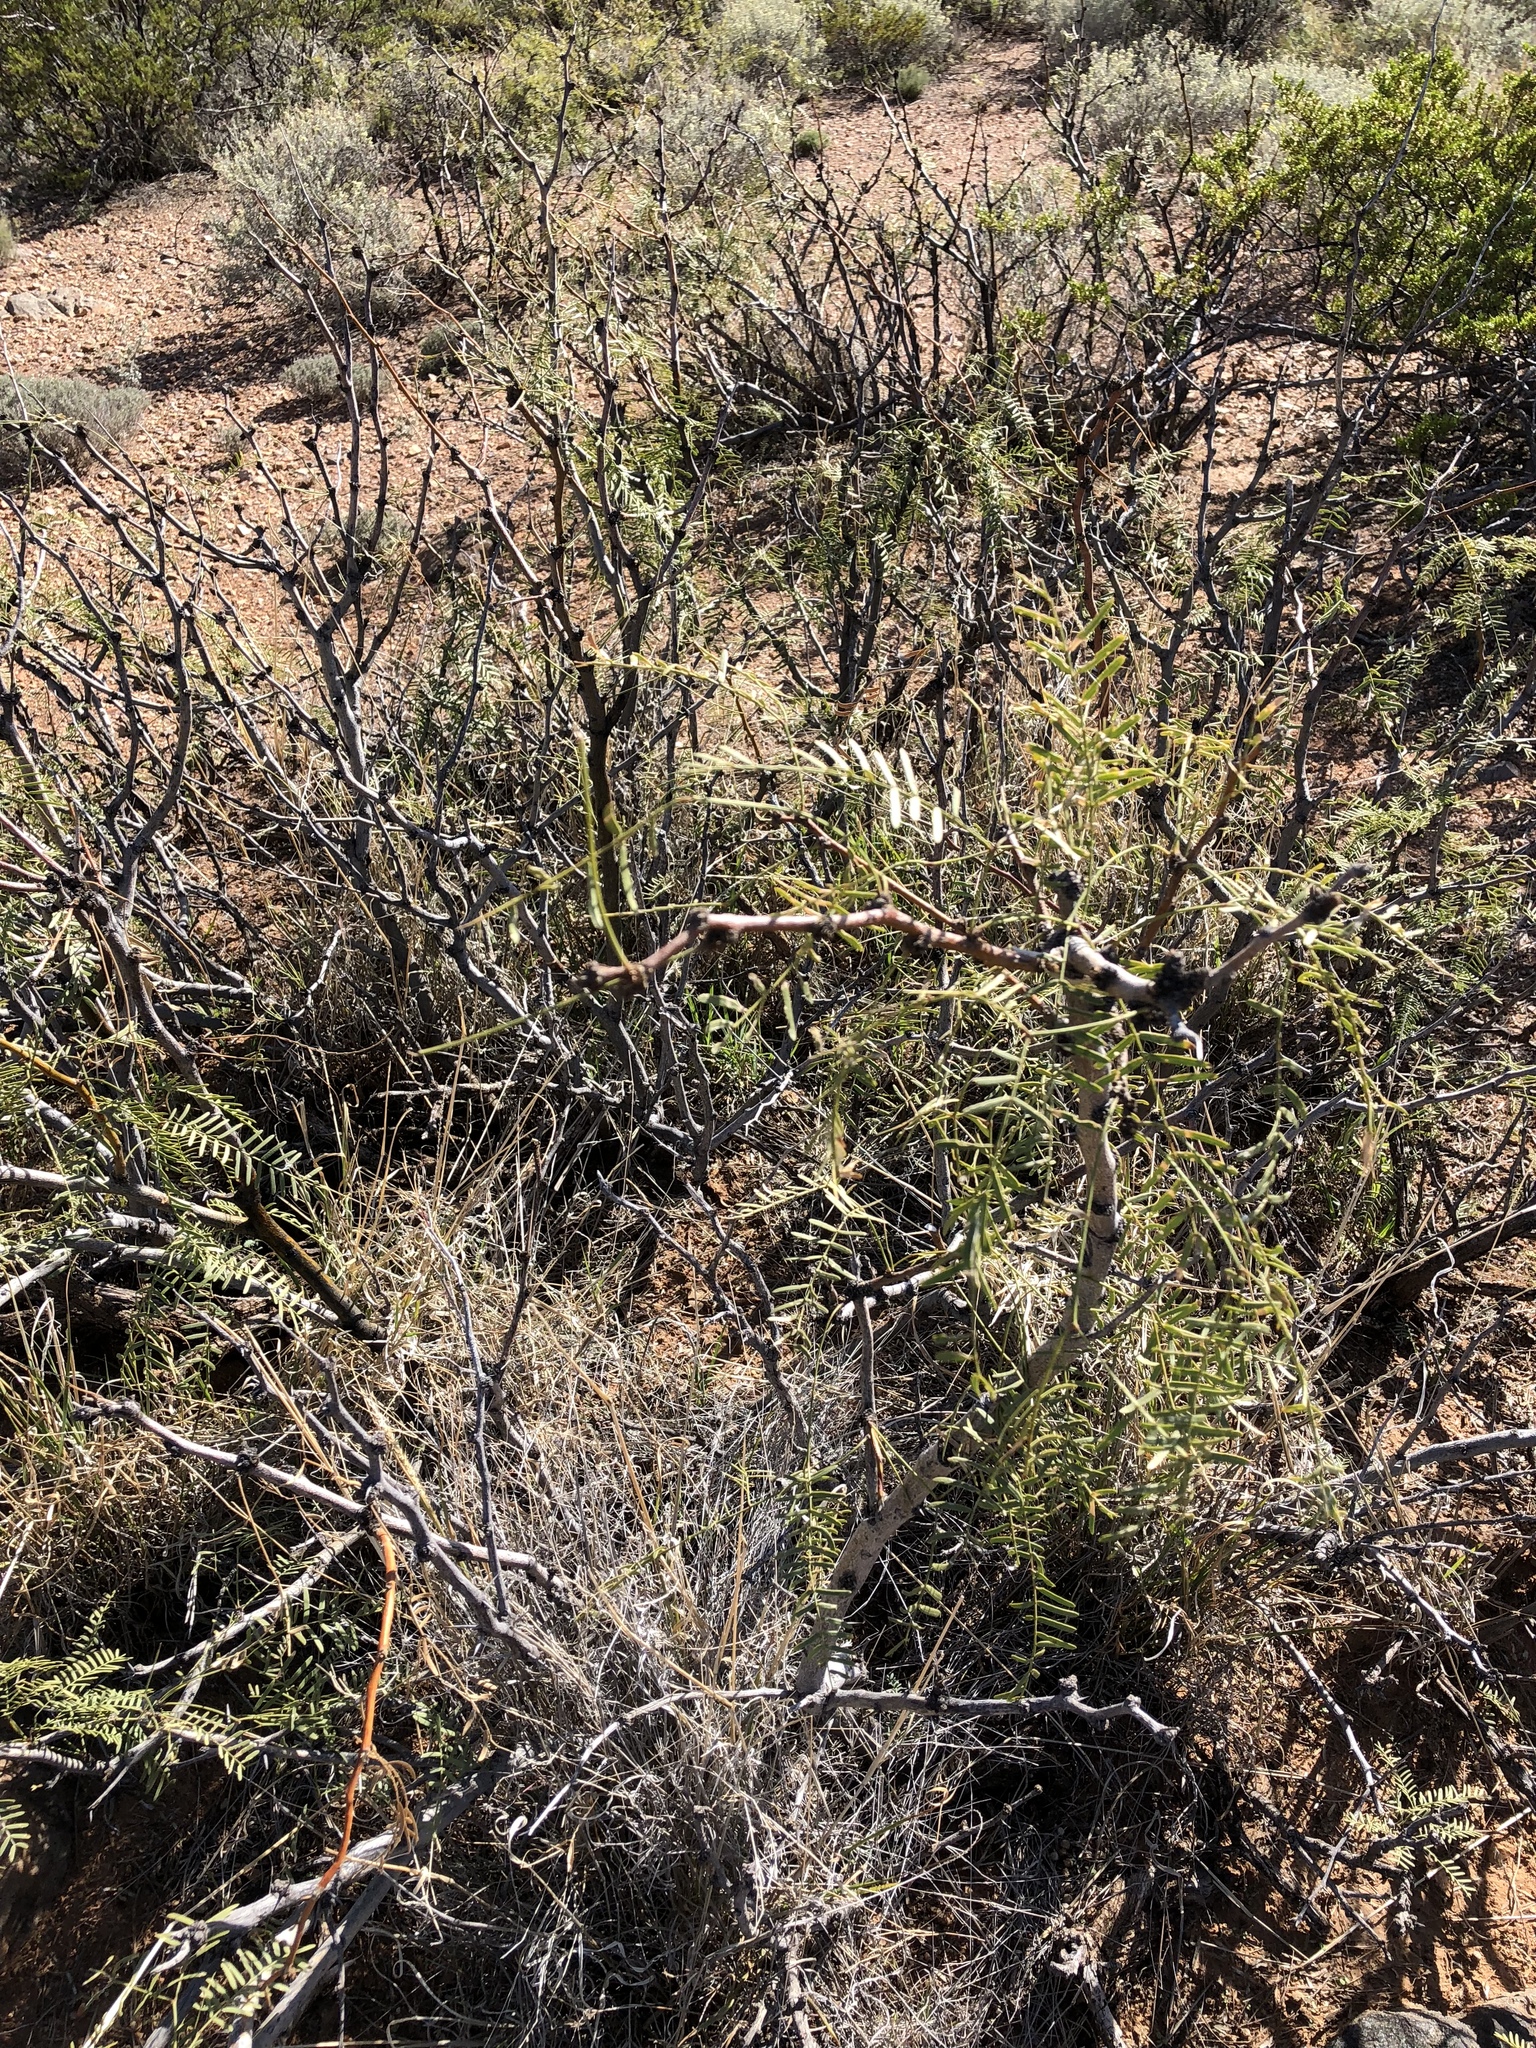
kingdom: Plantae
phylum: Tracheophyta
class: Magnoliopsida
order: Fabales
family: Fabaceae
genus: Prosopis
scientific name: Prosopis glandulosa
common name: Honey mesquite
